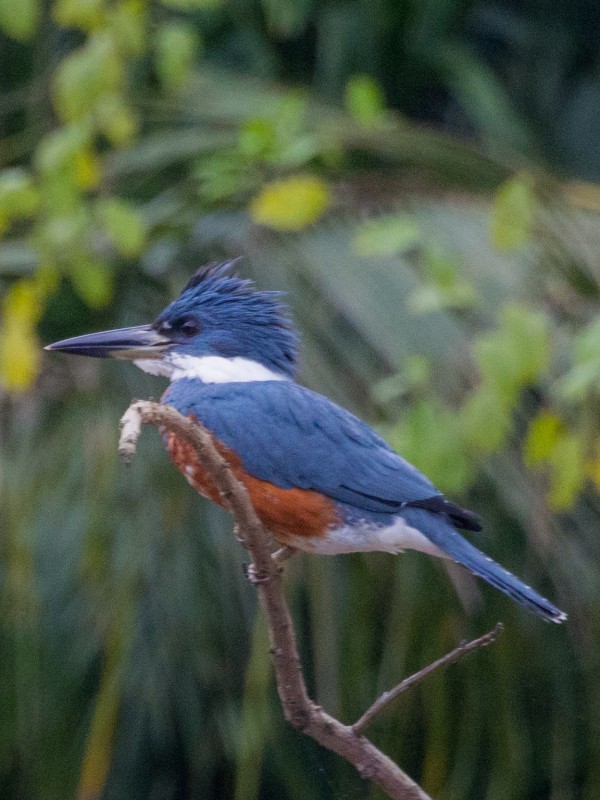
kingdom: Animalia
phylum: Chordata
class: Aves
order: Coraciiformes
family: Alcedinidae
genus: Megaceryle
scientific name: Megaceryle torquata
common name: Ringed kingfisher
